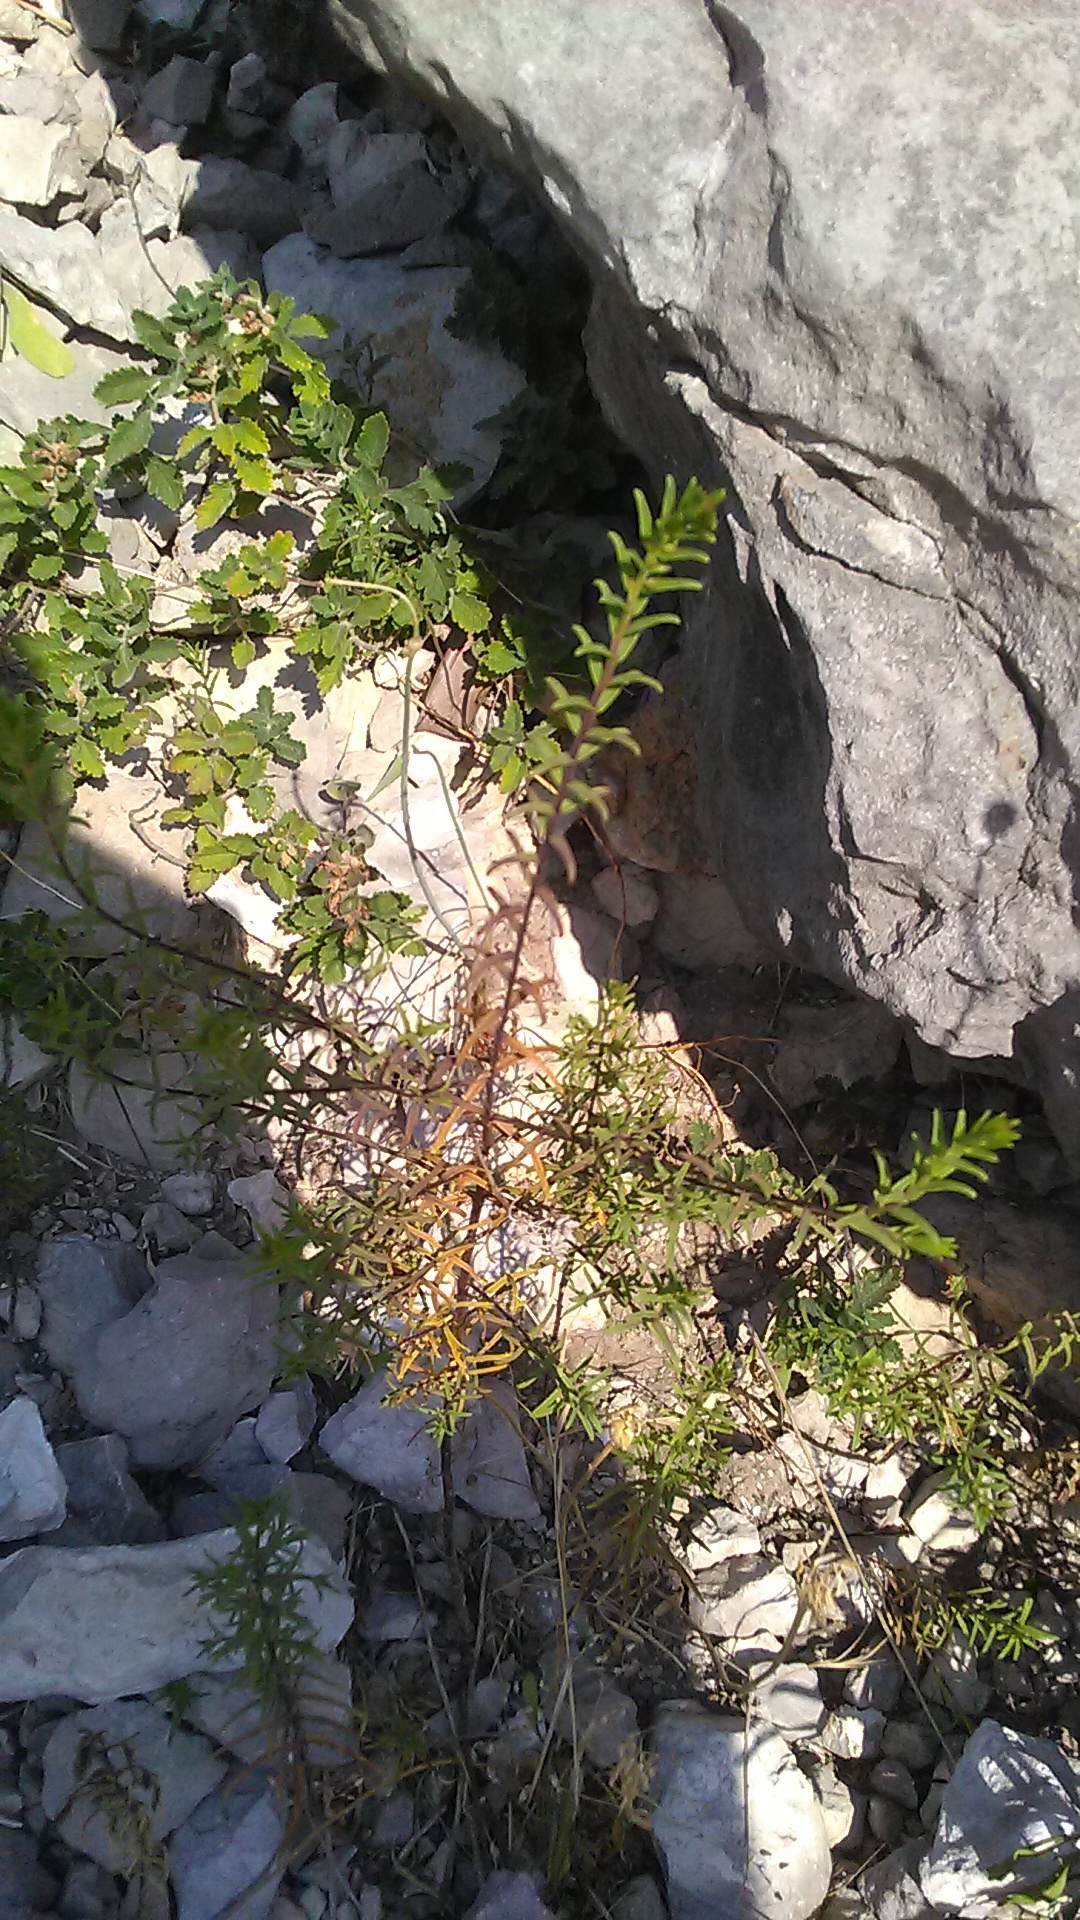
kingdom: Plantae
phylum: Tracheophyta
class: Magnoliopsida
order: Lamiales
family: Orobanchaceae
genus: Odontites
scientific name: Odontites luteus
